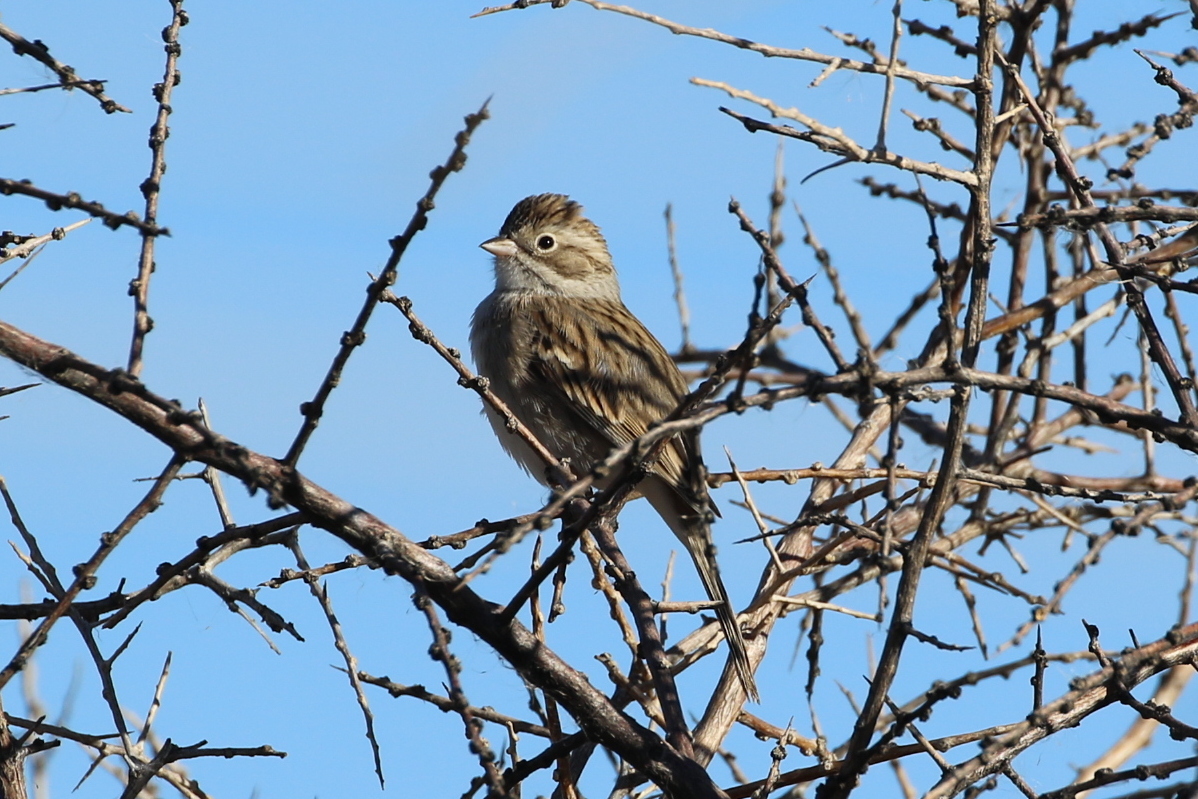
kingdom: Animalia
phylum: Chordata
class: Aves
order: Passeriformes
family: Passerellidae
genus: Spizella
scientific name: Spizella breweri
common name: Brewer's sparrow
